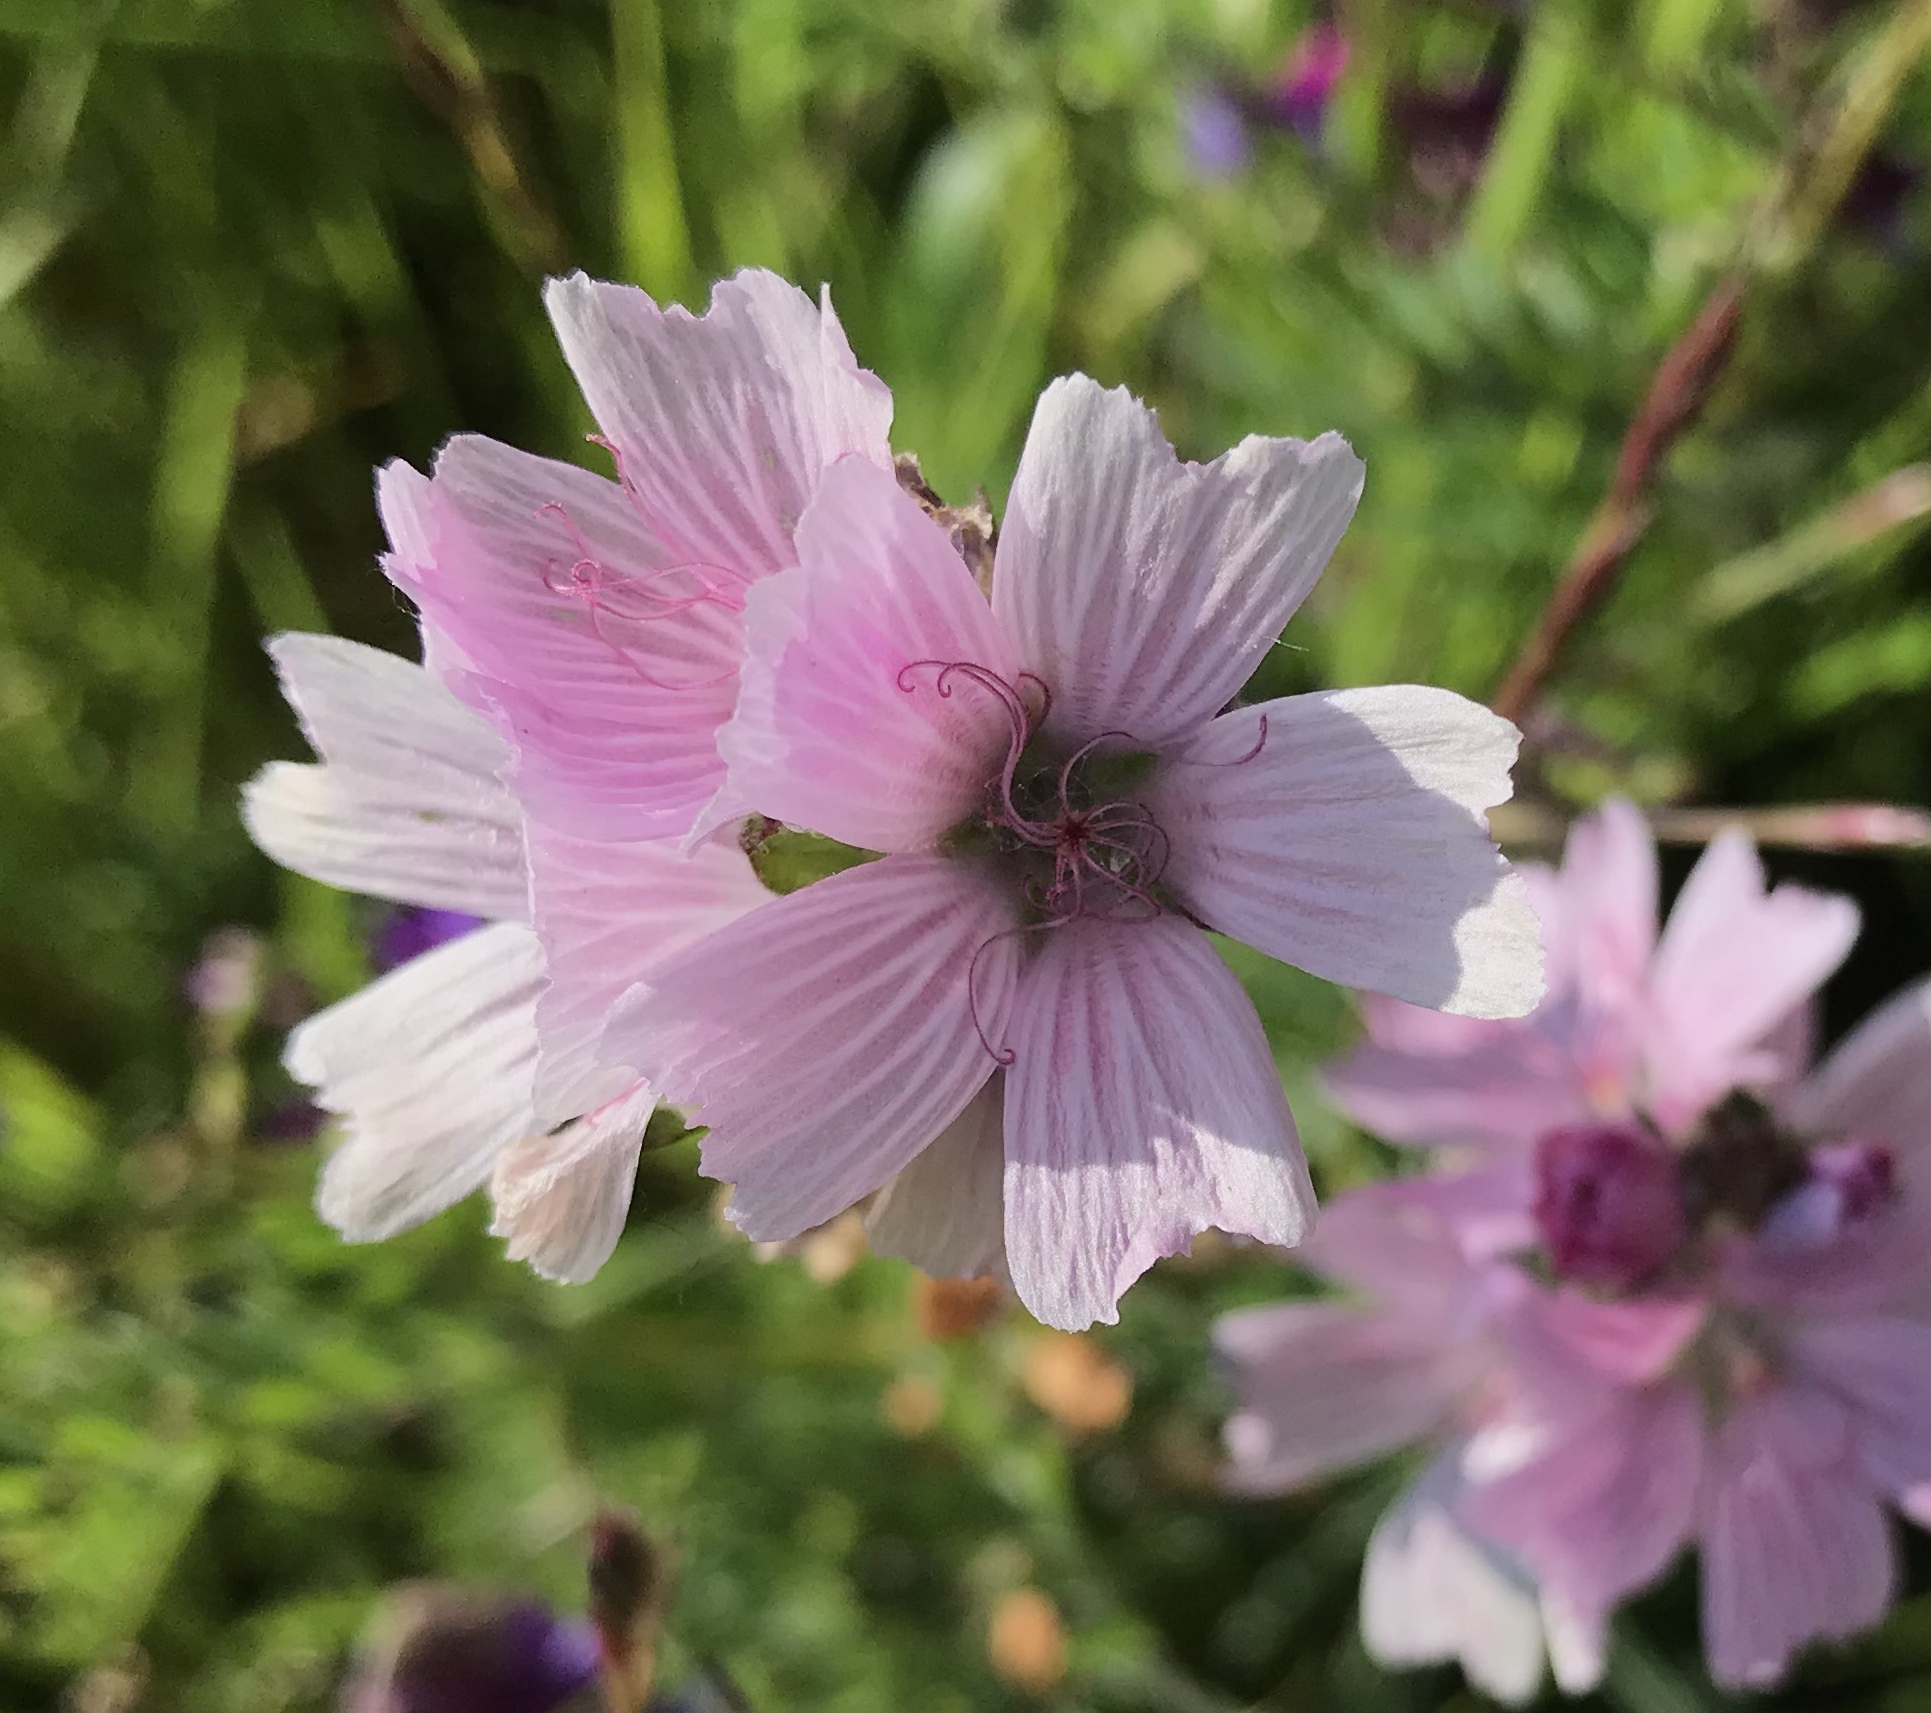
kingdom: Plantae
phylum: Tracheophyta
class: Magnoliopsida
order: Malvales
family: Malvaceae
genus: Sidalcea
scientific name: Sidalcea malviflora
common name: Greek mallow
